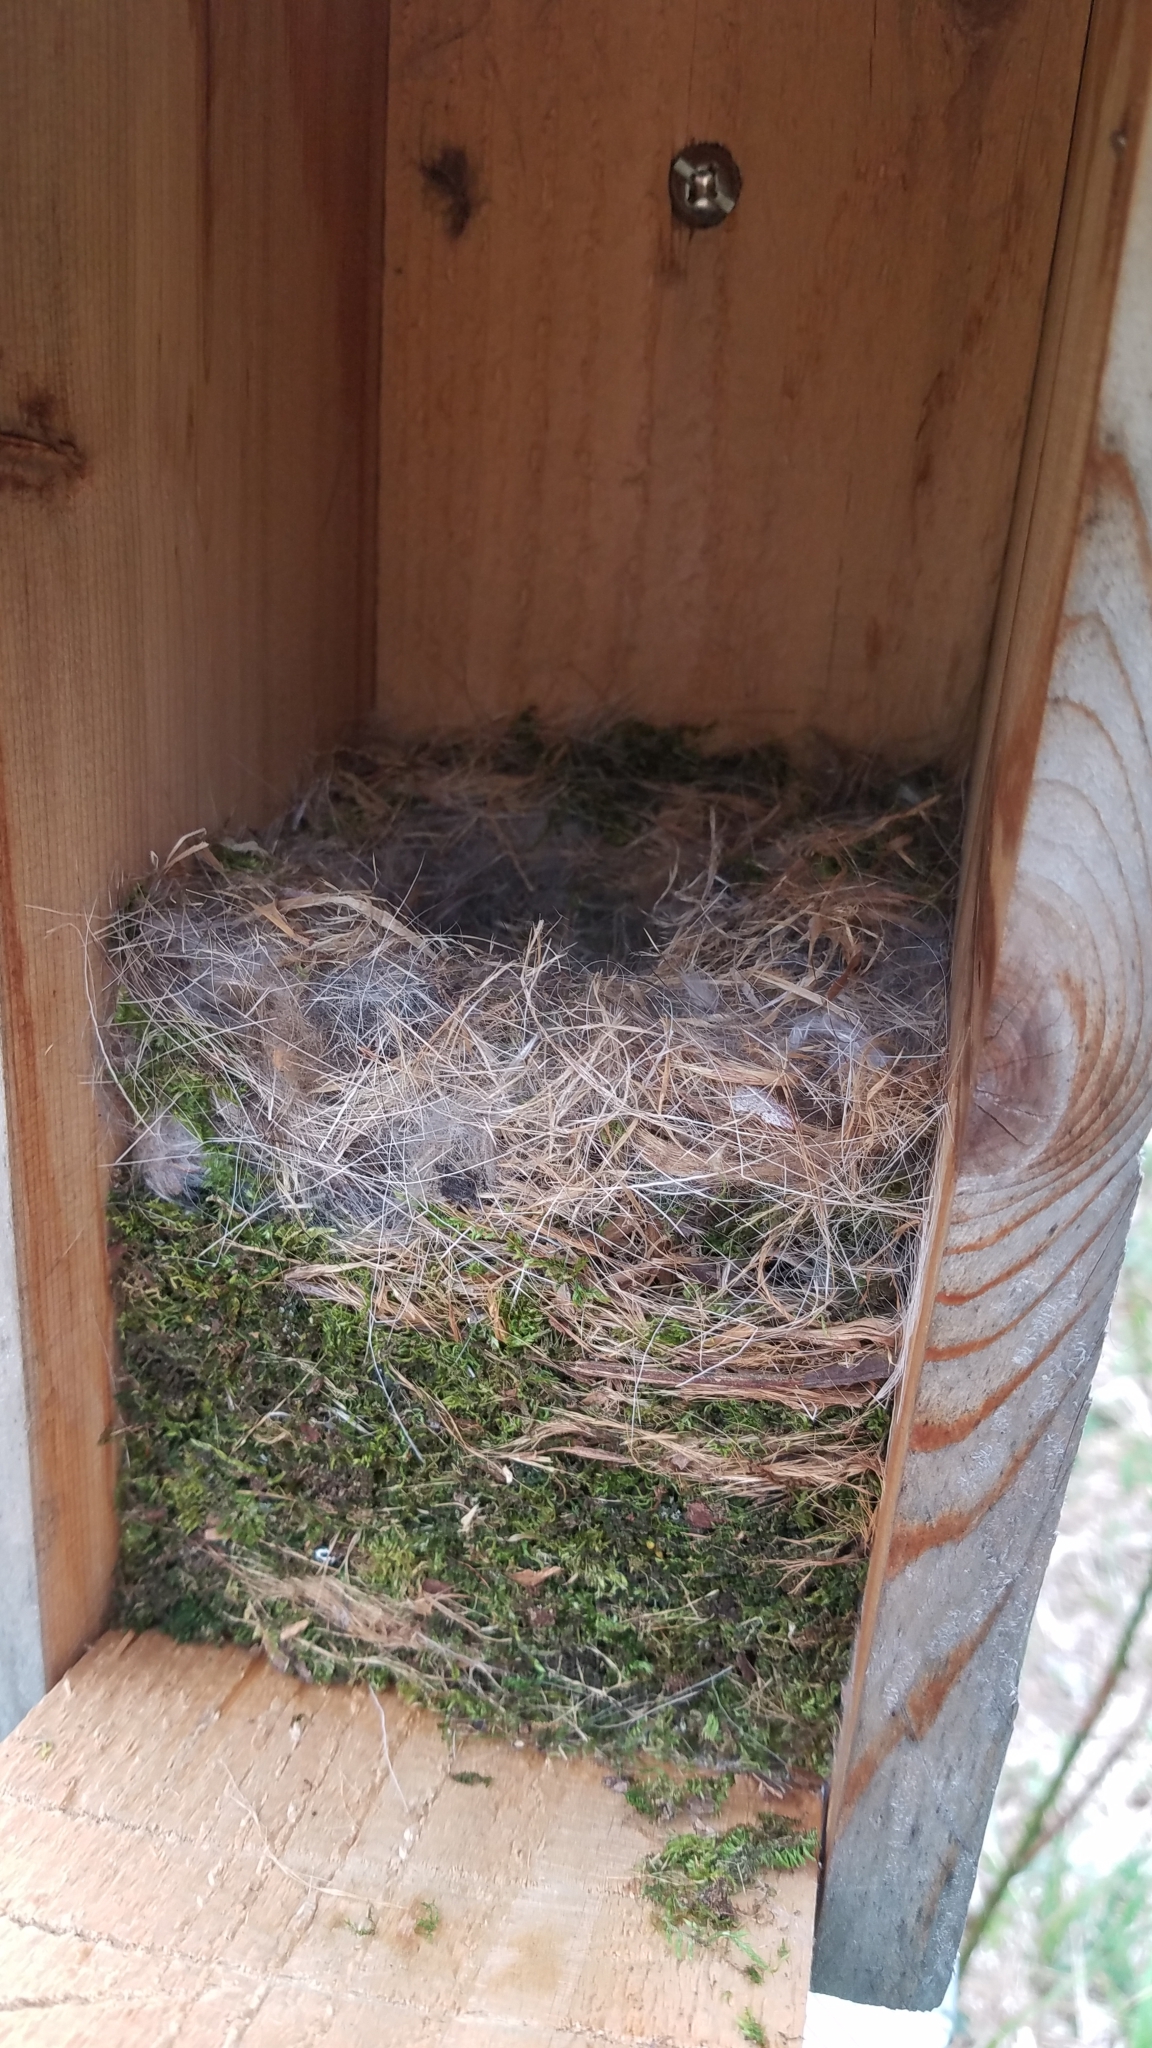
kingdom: Animalia
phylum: Chordata
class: Aves
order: Passeriformes
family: Paridae
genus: Poecile
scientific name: Poecile carolinensis
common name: Carolina chickadee
